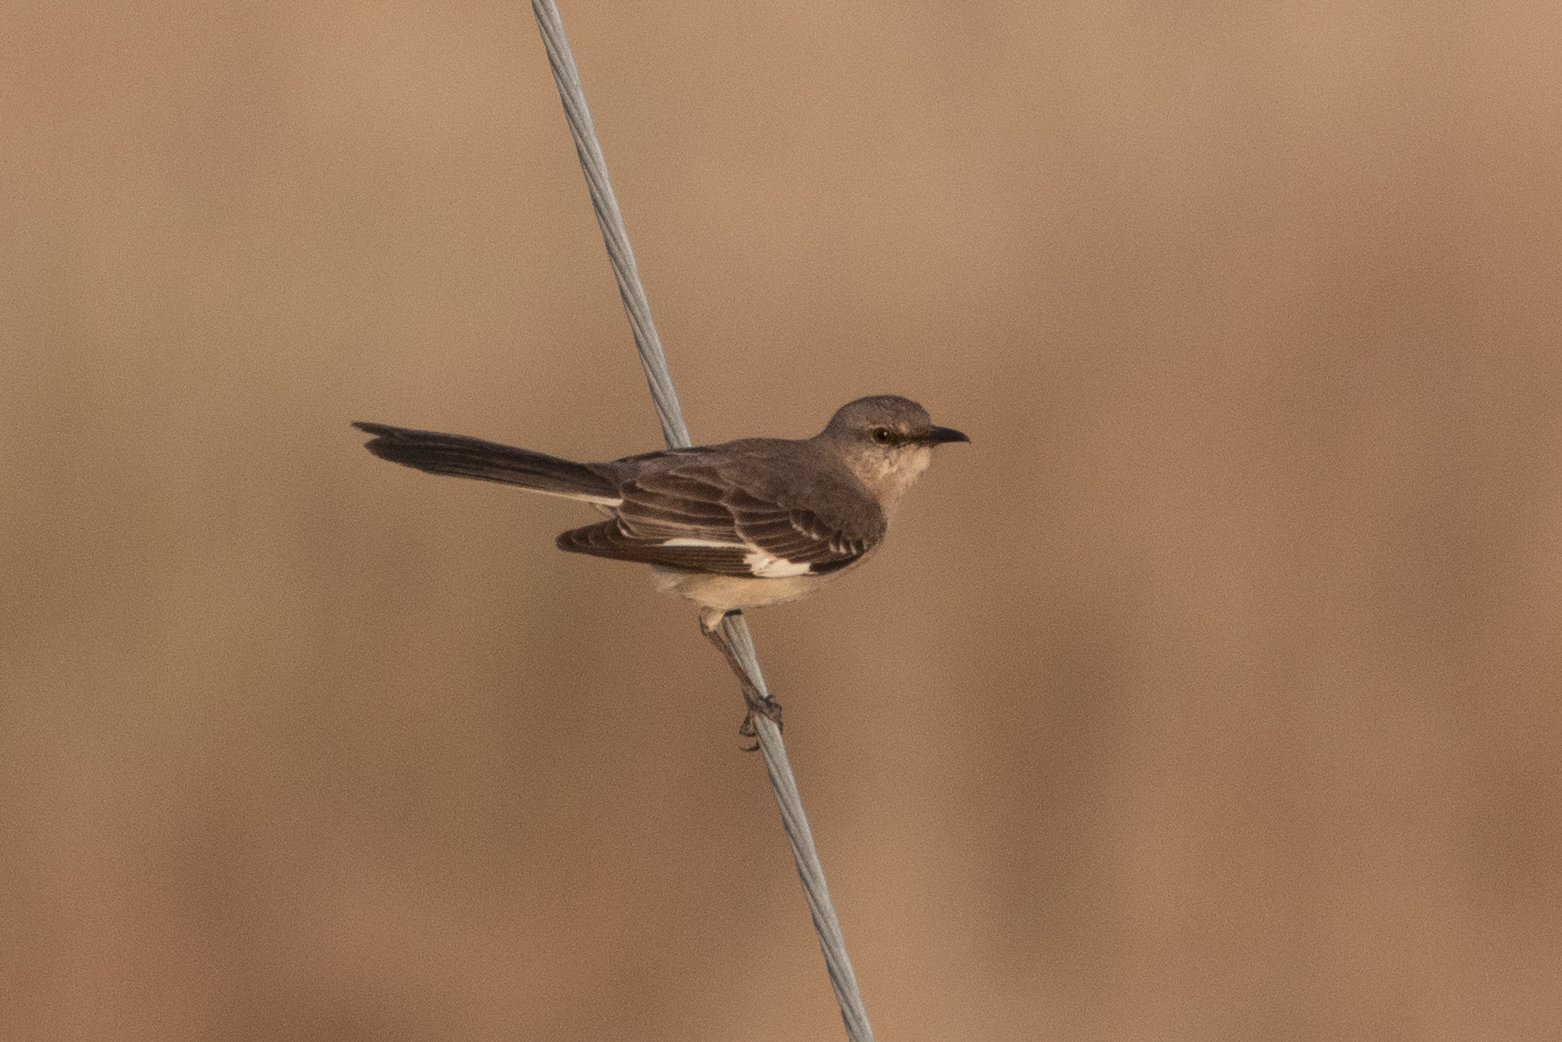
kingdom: Animalia
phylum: Chordata
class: Aves
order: Passeriformes
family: Mimidae
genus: Mimus
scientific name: Mimus polyglottos
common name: Northern mockingbird
